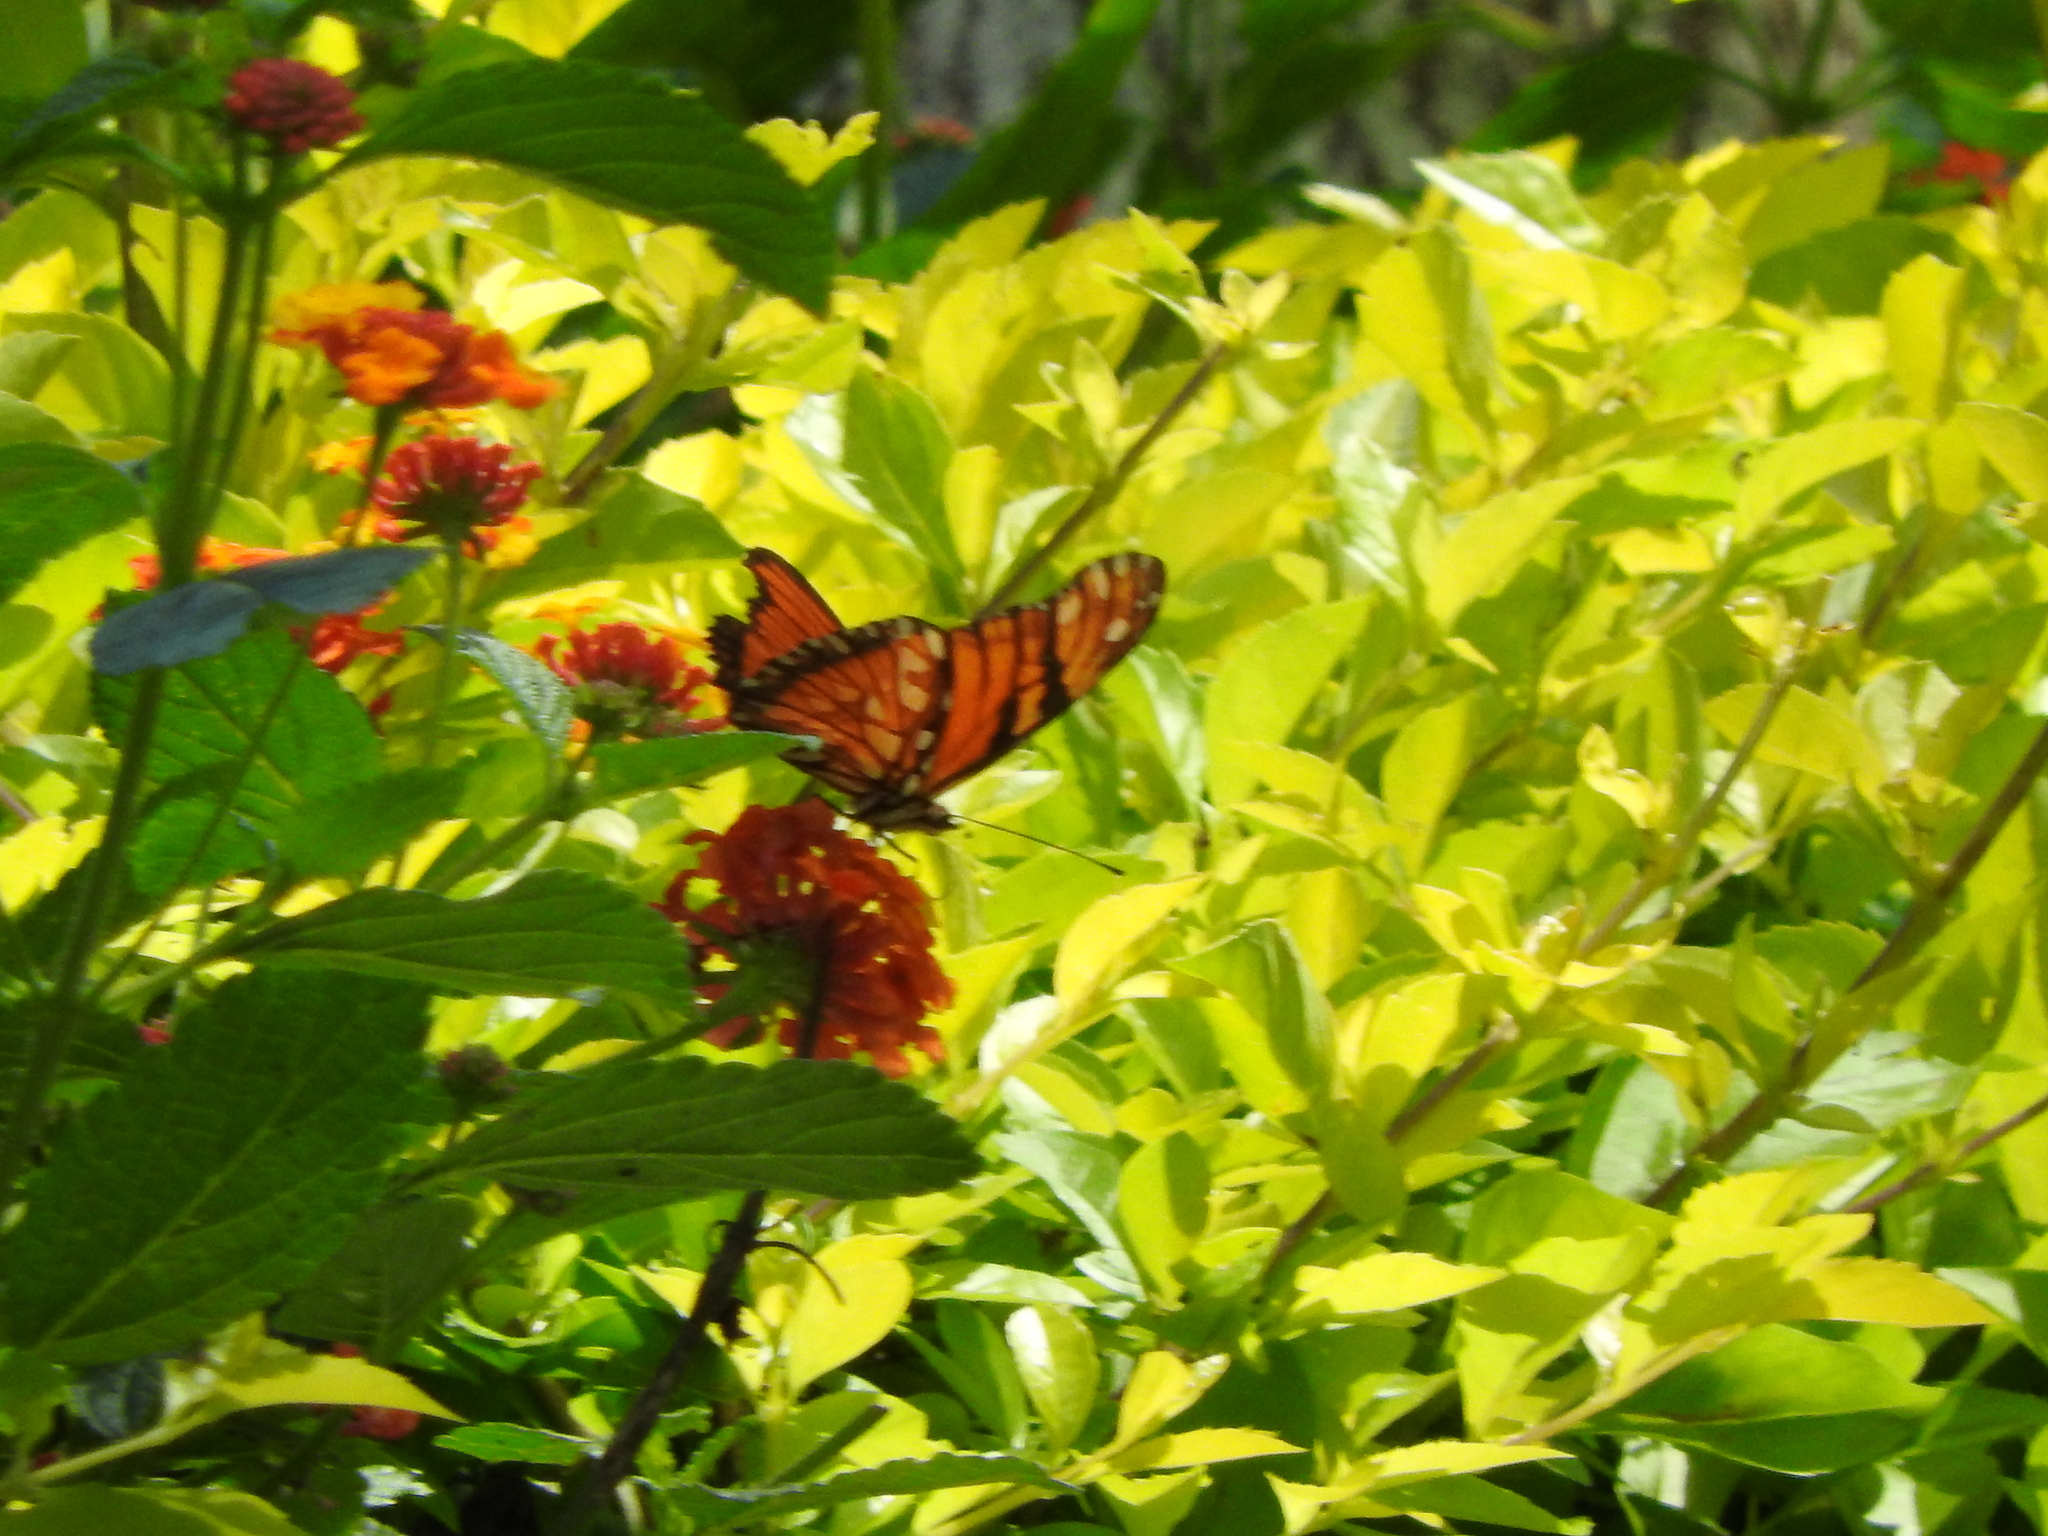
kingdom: Animalia
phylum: Arthropoda
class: Insecta
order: Lepidoptera
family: Nymphalidae
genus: Dione
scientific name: Dione juno
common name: Juno silverspot
